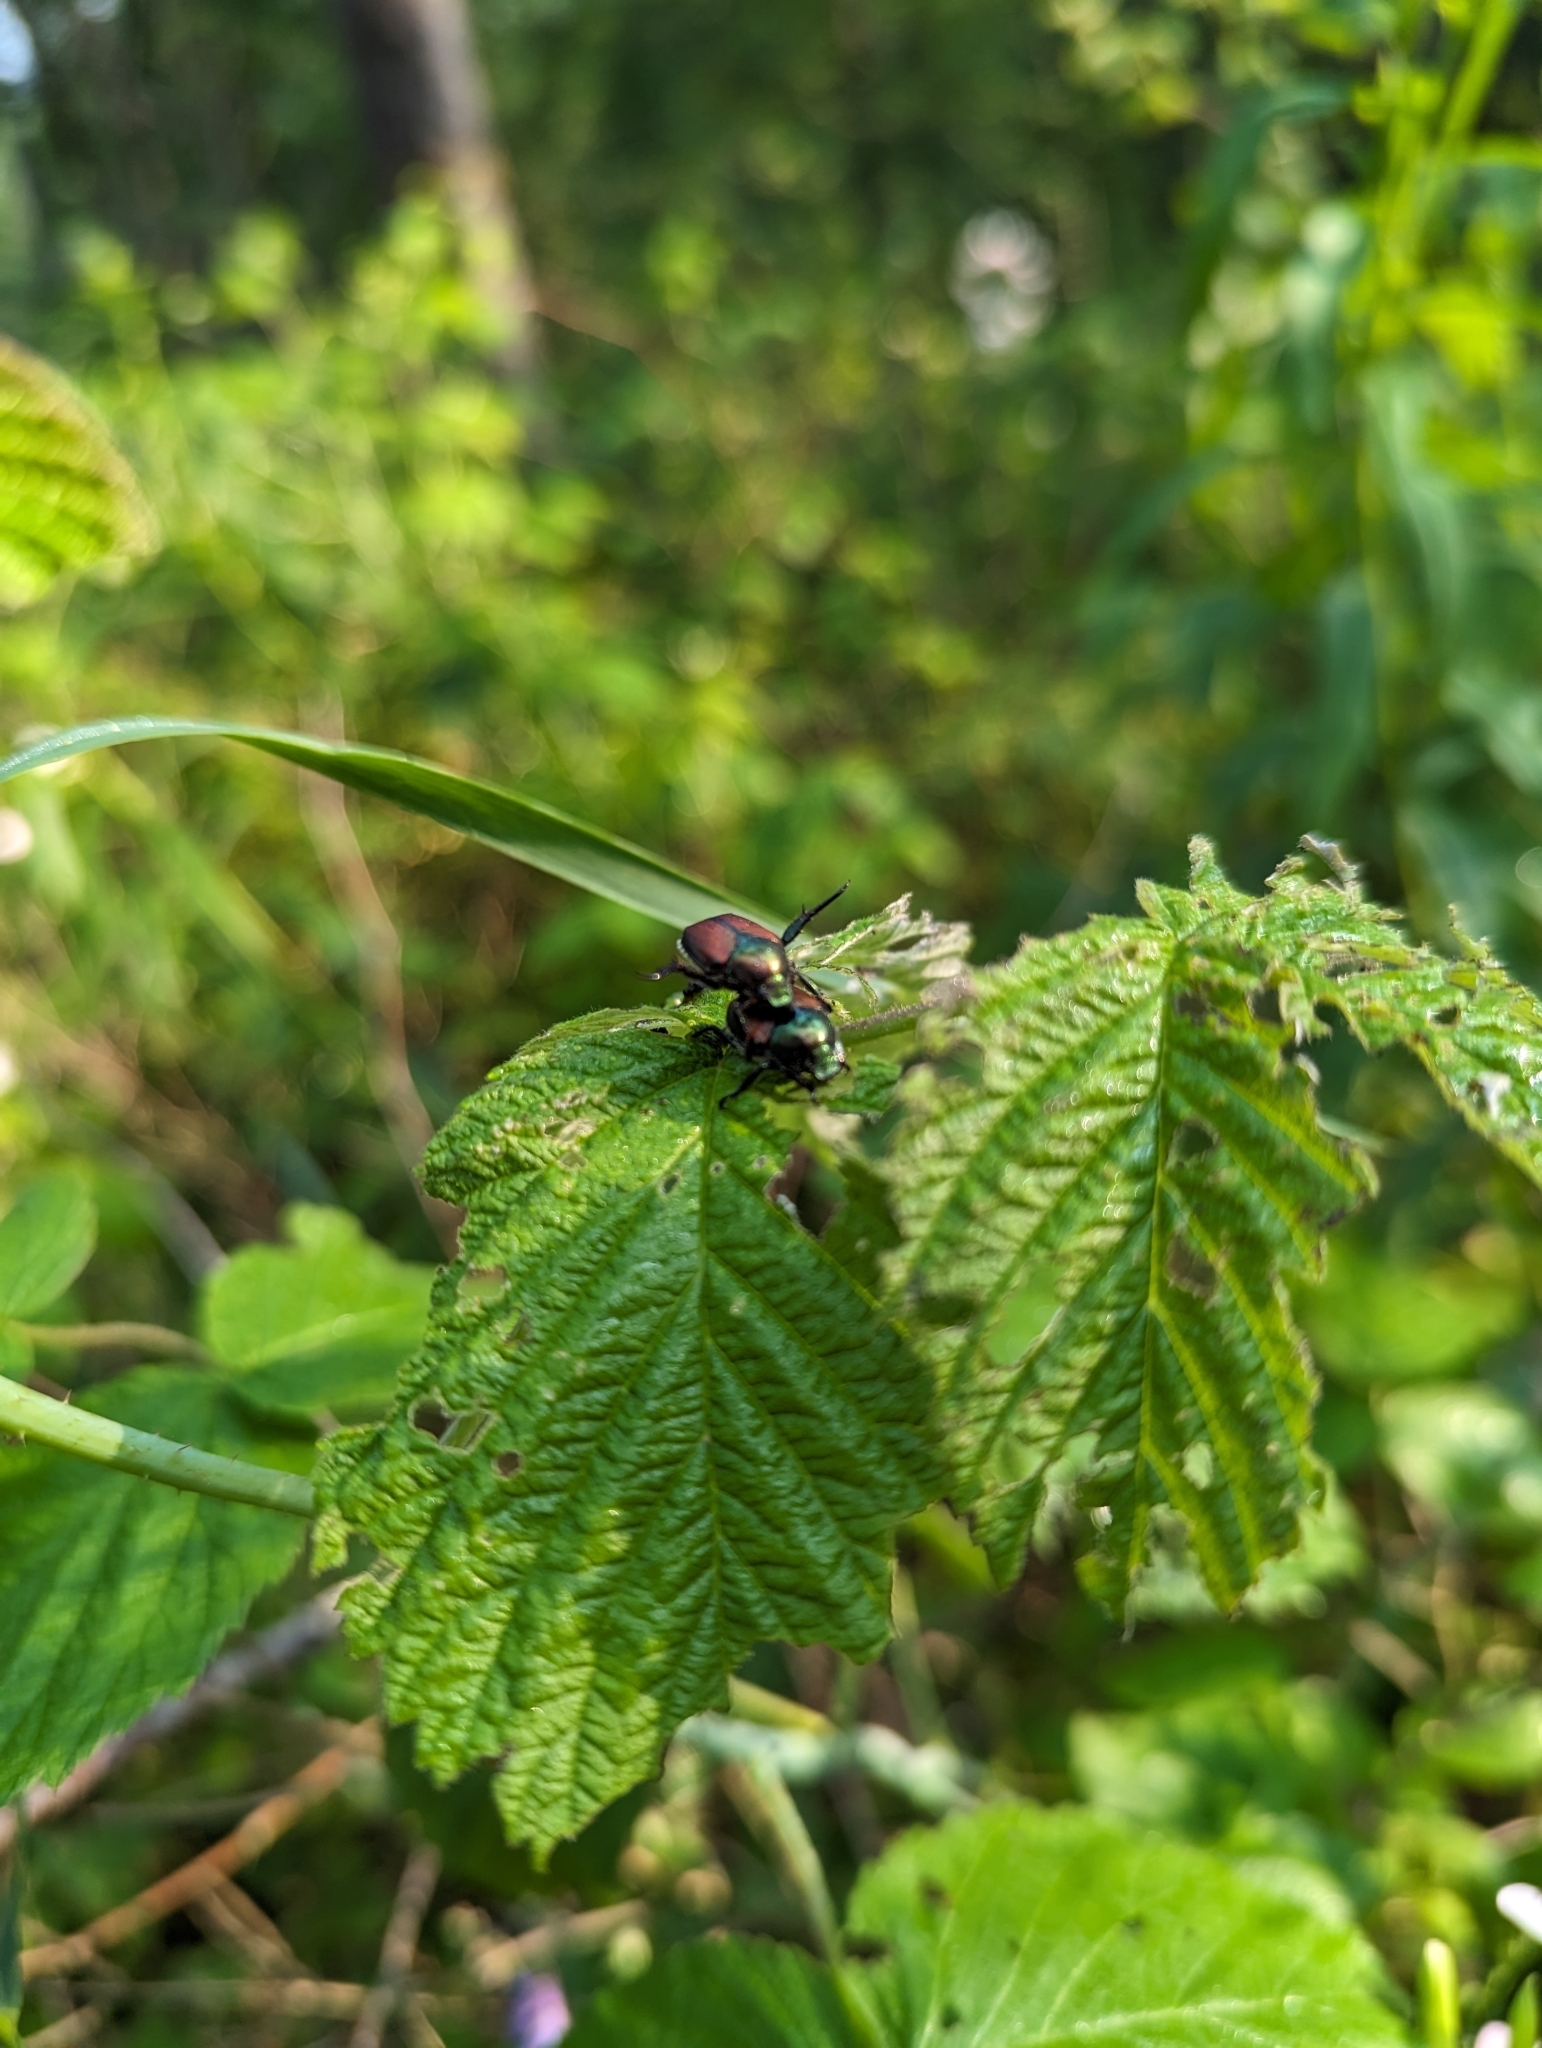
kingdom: Animalia
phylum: Arthropoda
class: Insecta
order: Coleoptera
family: Scarabaeidae
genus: Popillia
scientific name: Popillia japonica
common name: Japanese beetle
